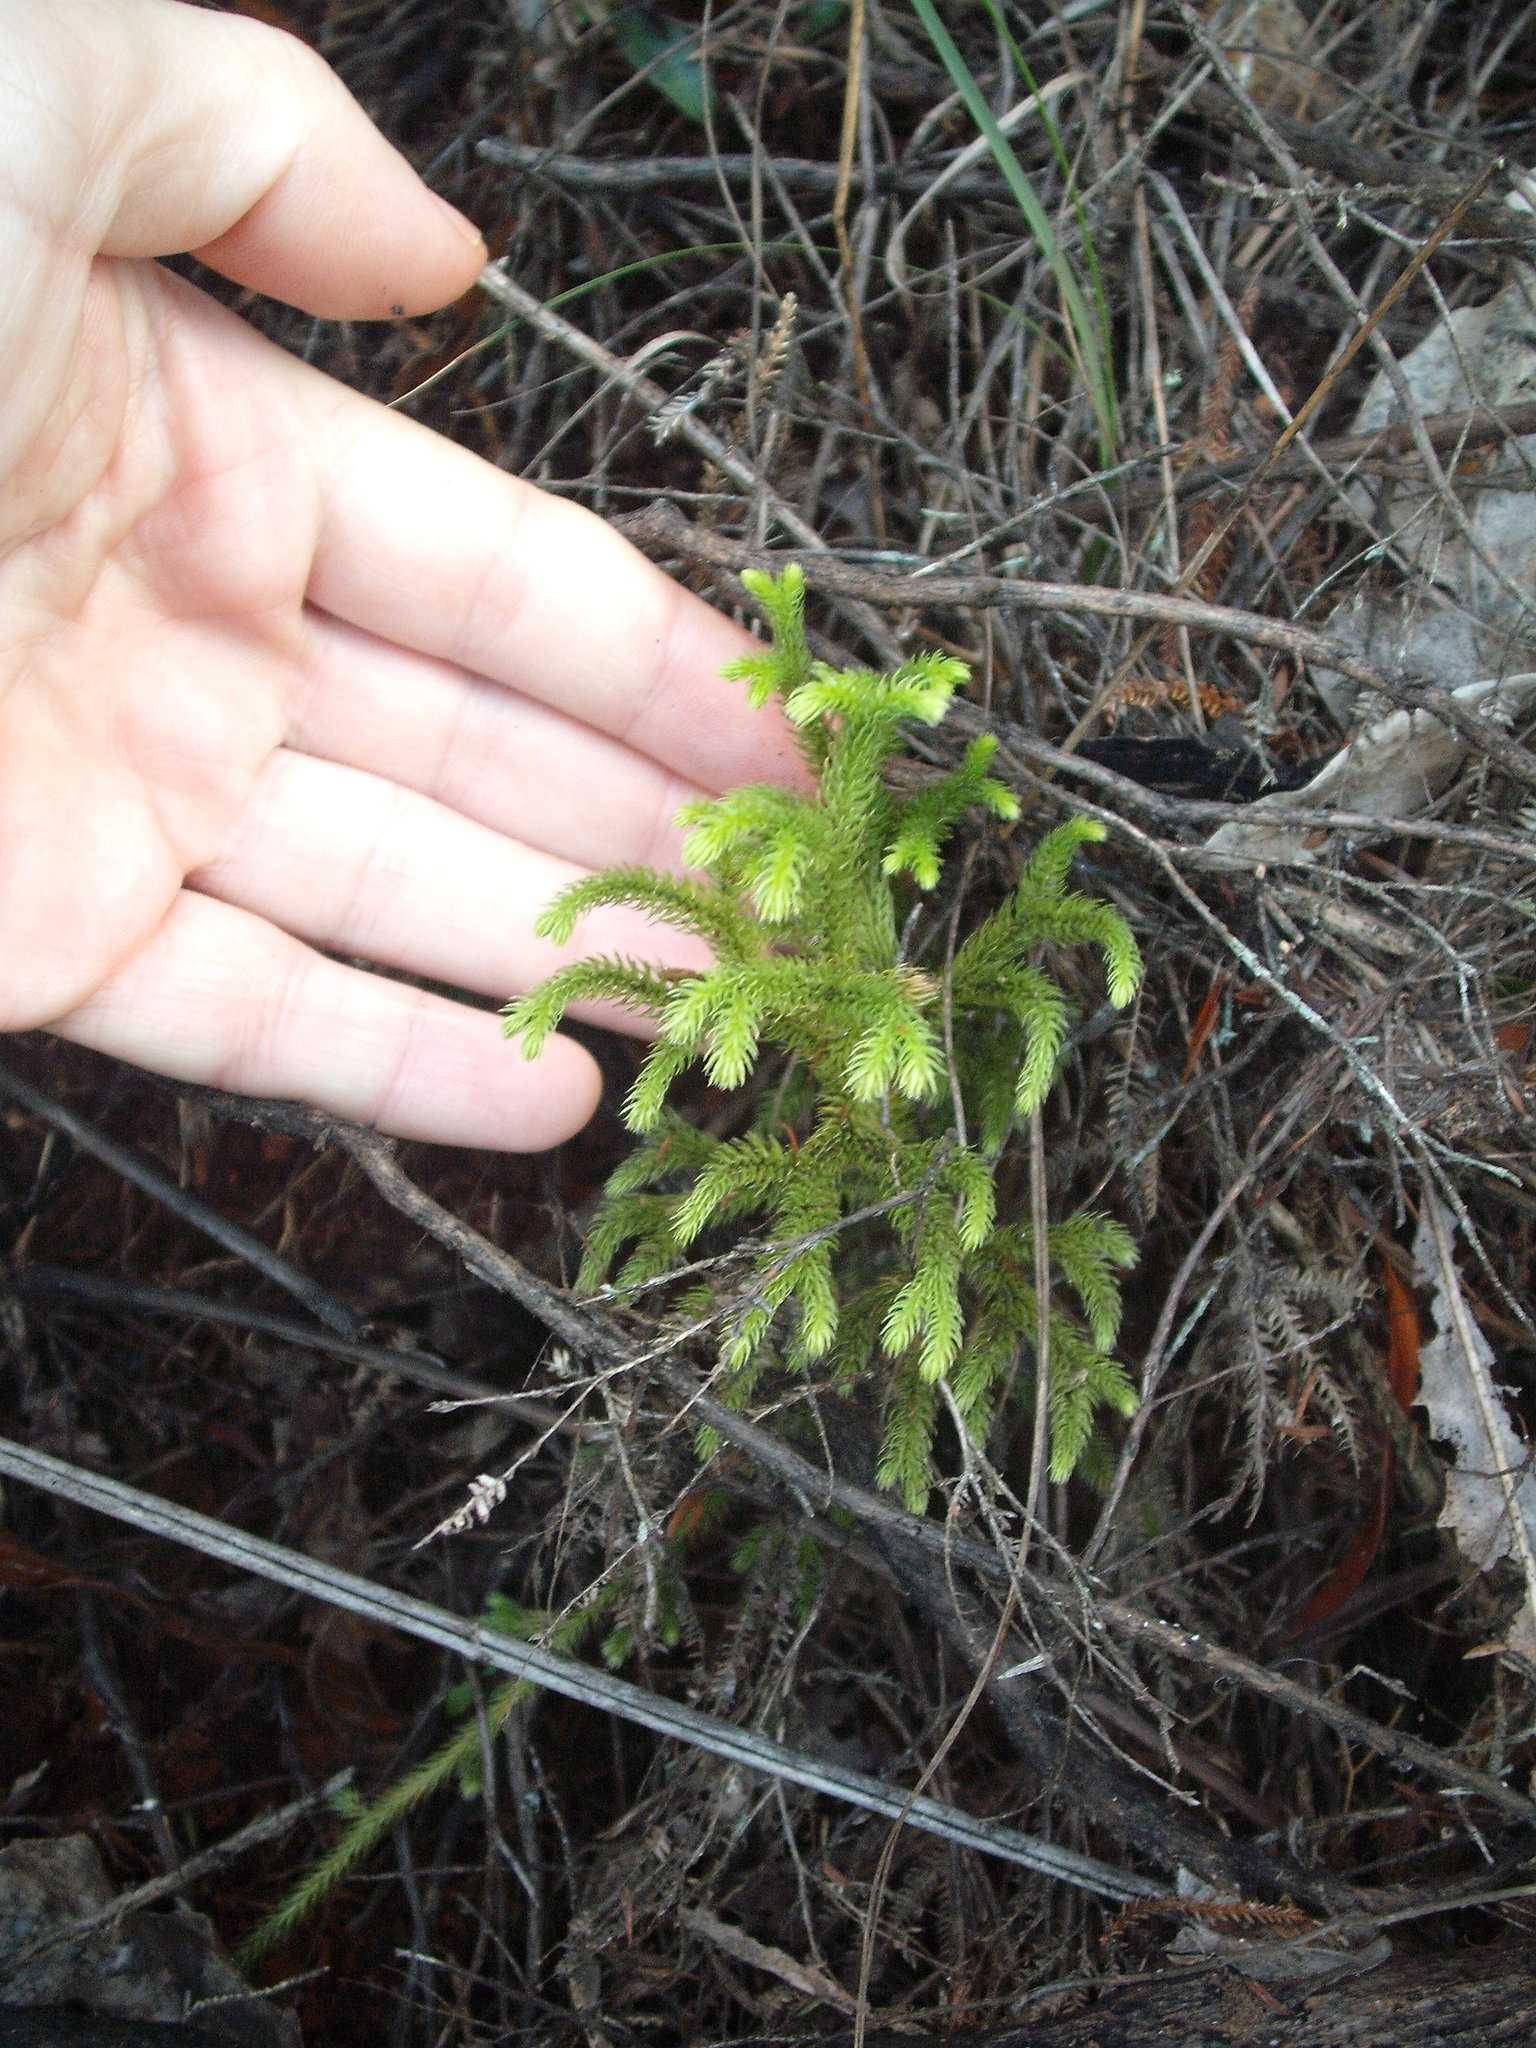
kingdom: Plantae
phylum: Tracheophyta
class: Lycopodiopsida
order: Lycopodiales
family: Lycopodiaceae
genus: Palhinhaea
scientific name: Palhinhaea cernua
